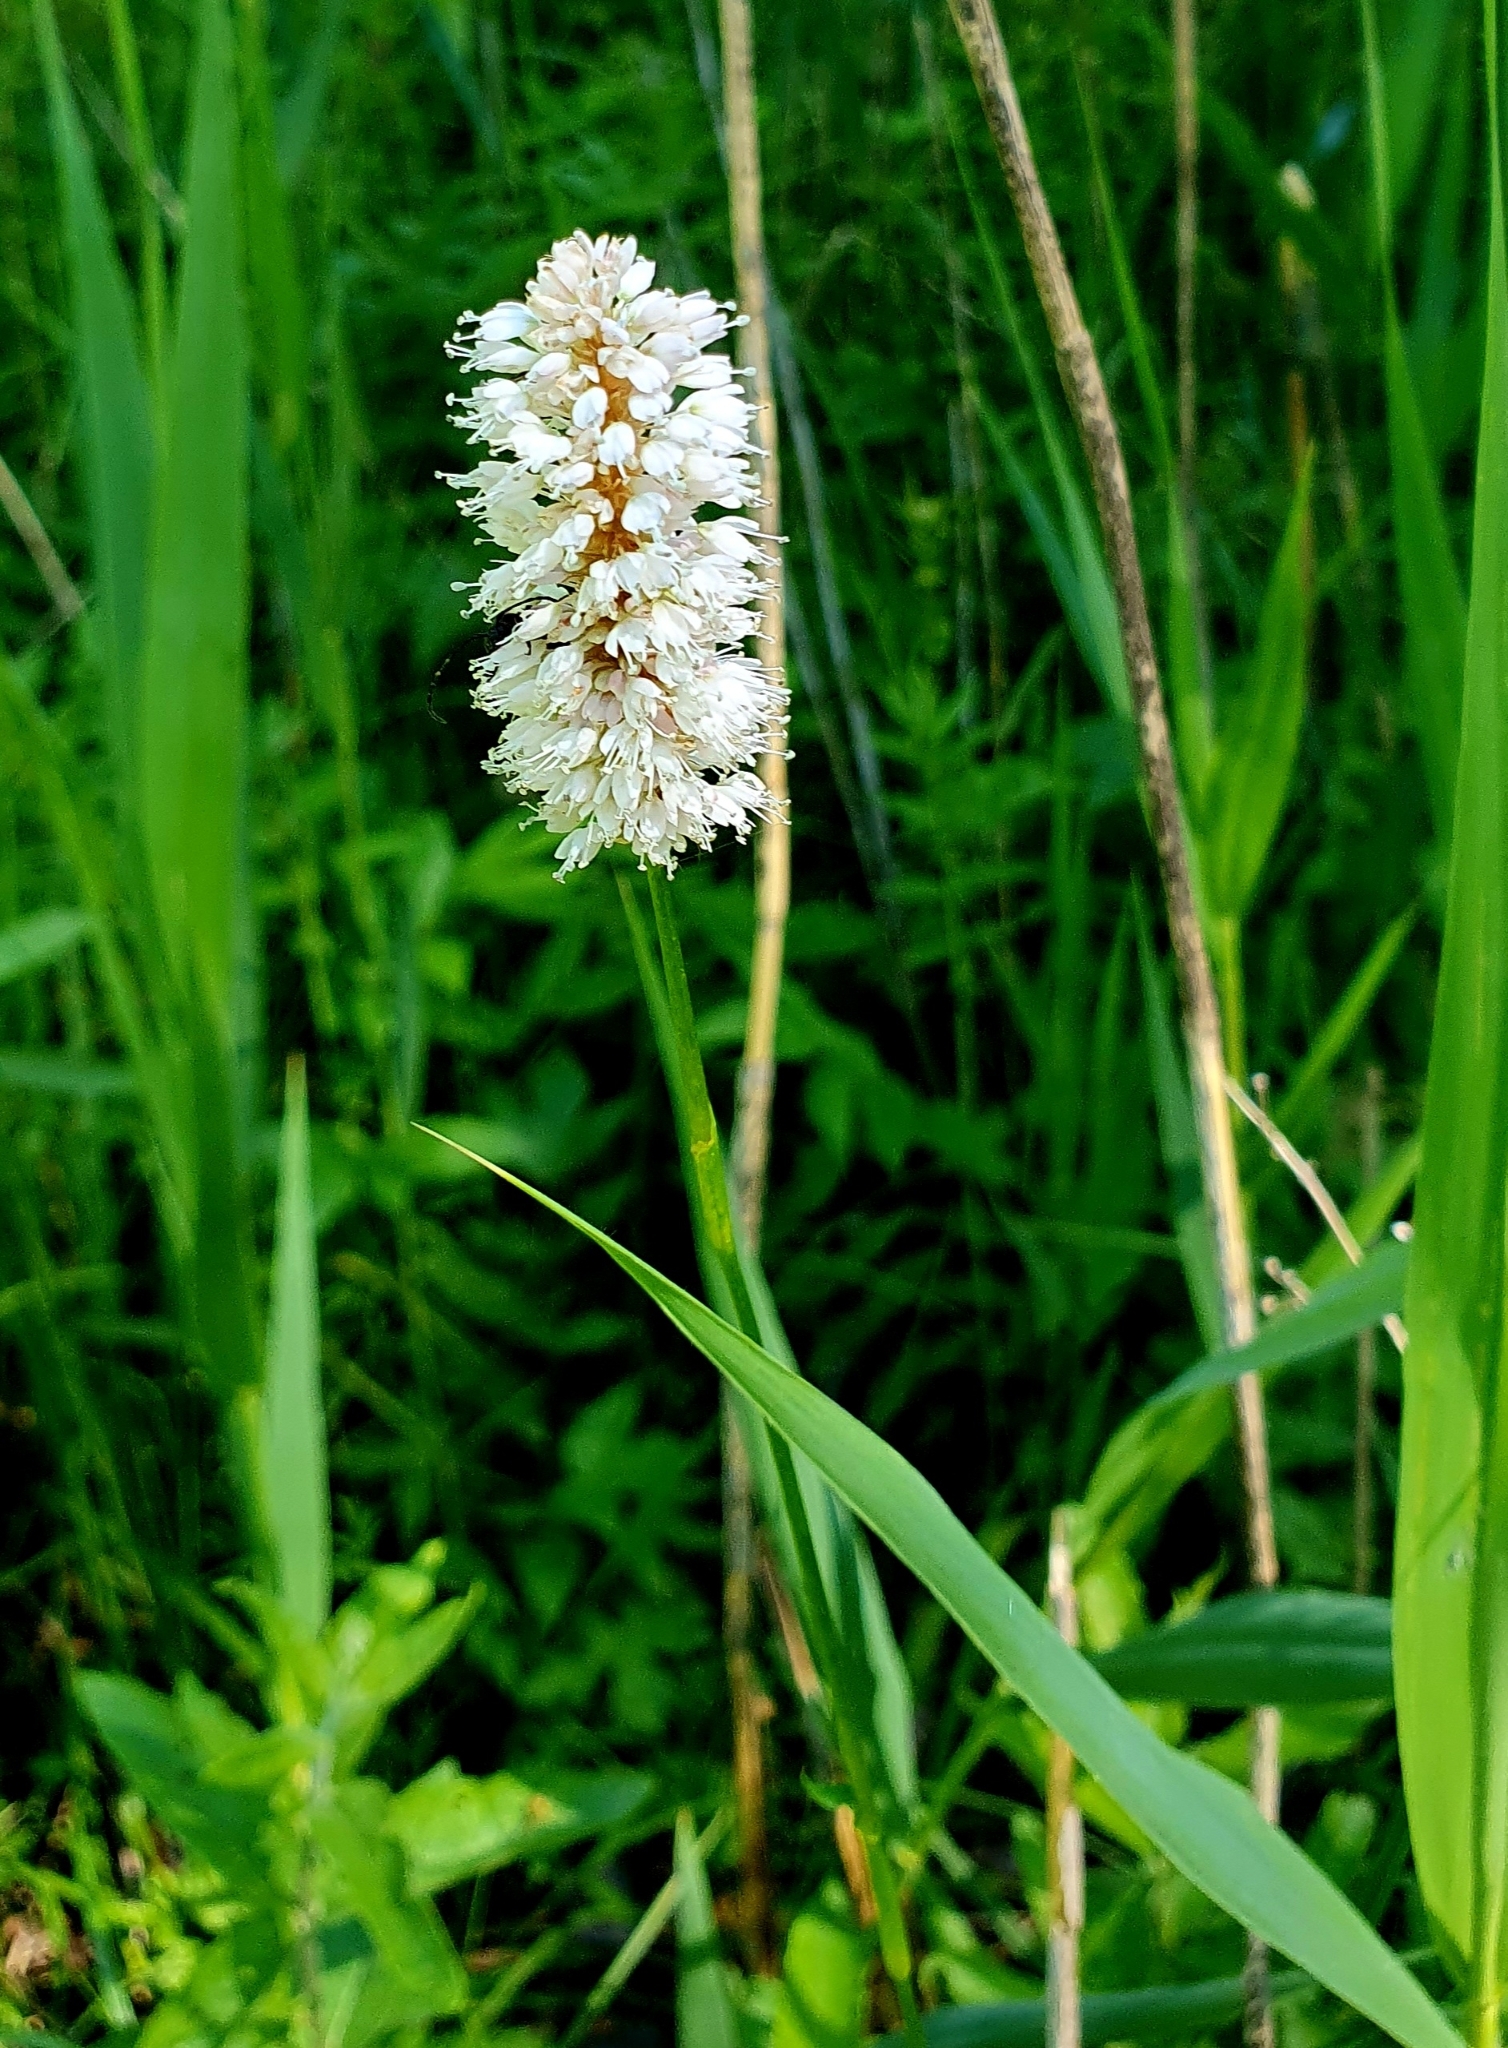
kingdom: Plantae
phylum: Tracheophyta
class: Magnoliopsida
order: Caryophyllales
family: Polygonaceae
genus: Bistorta
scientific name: Bistorta officinalis
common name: Common bistort
